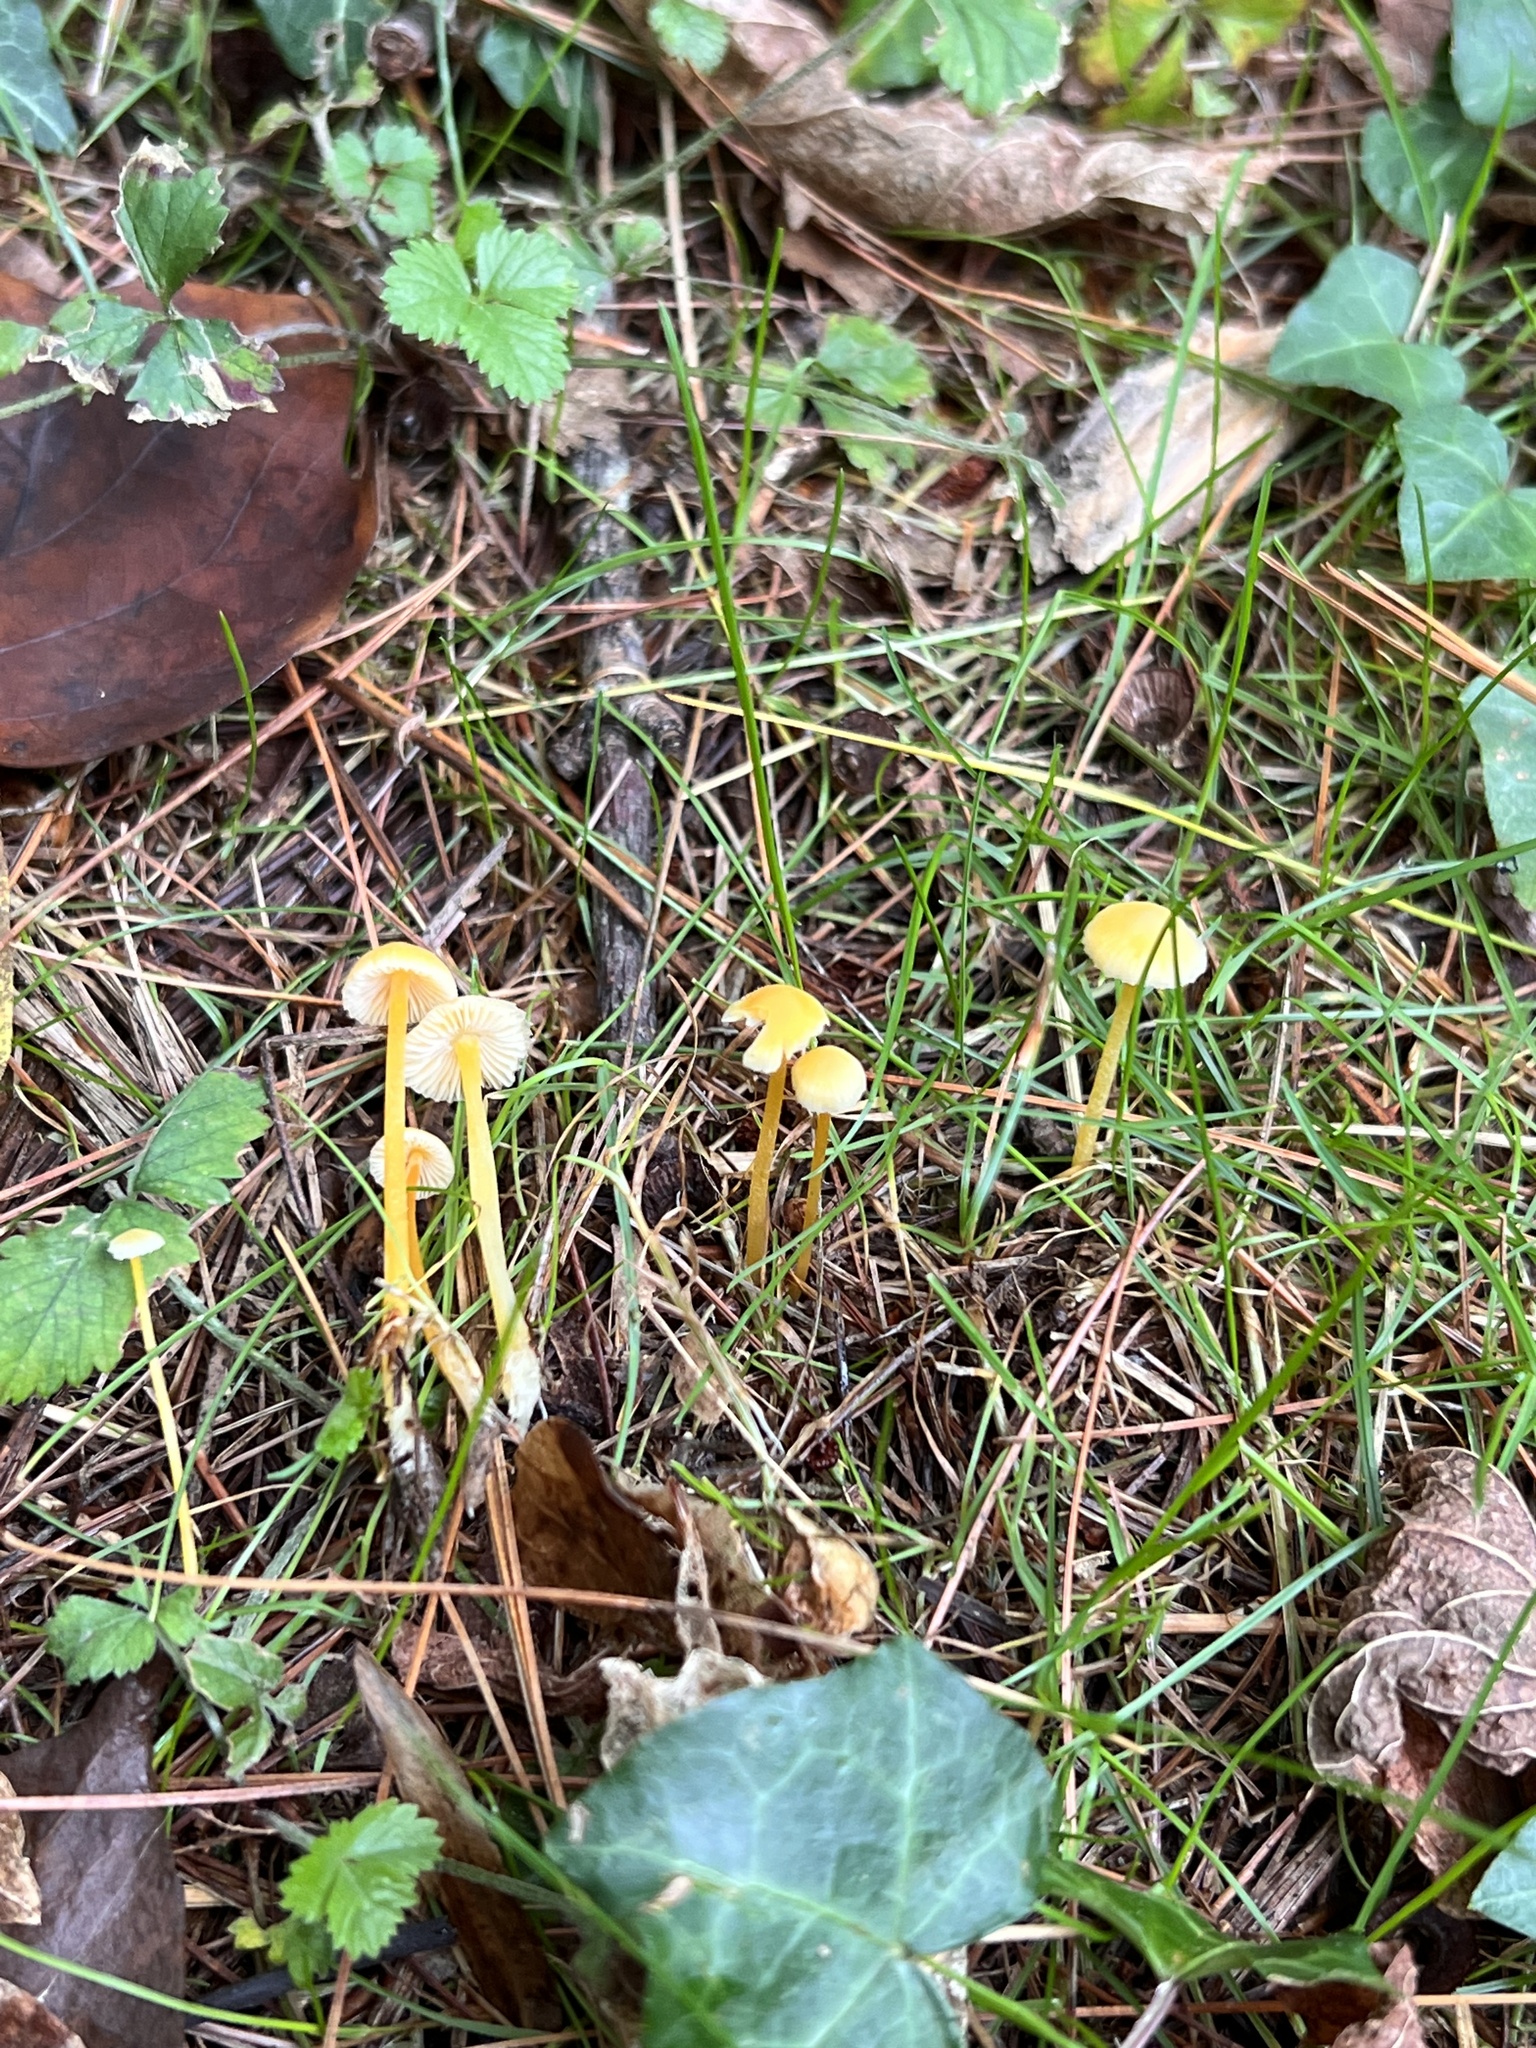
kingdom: Fungi
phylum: Basidiomycota
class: Agaricomycetes
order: Agaricales
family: Mycenaceae
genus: Mycena
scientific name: Mycena crocea
